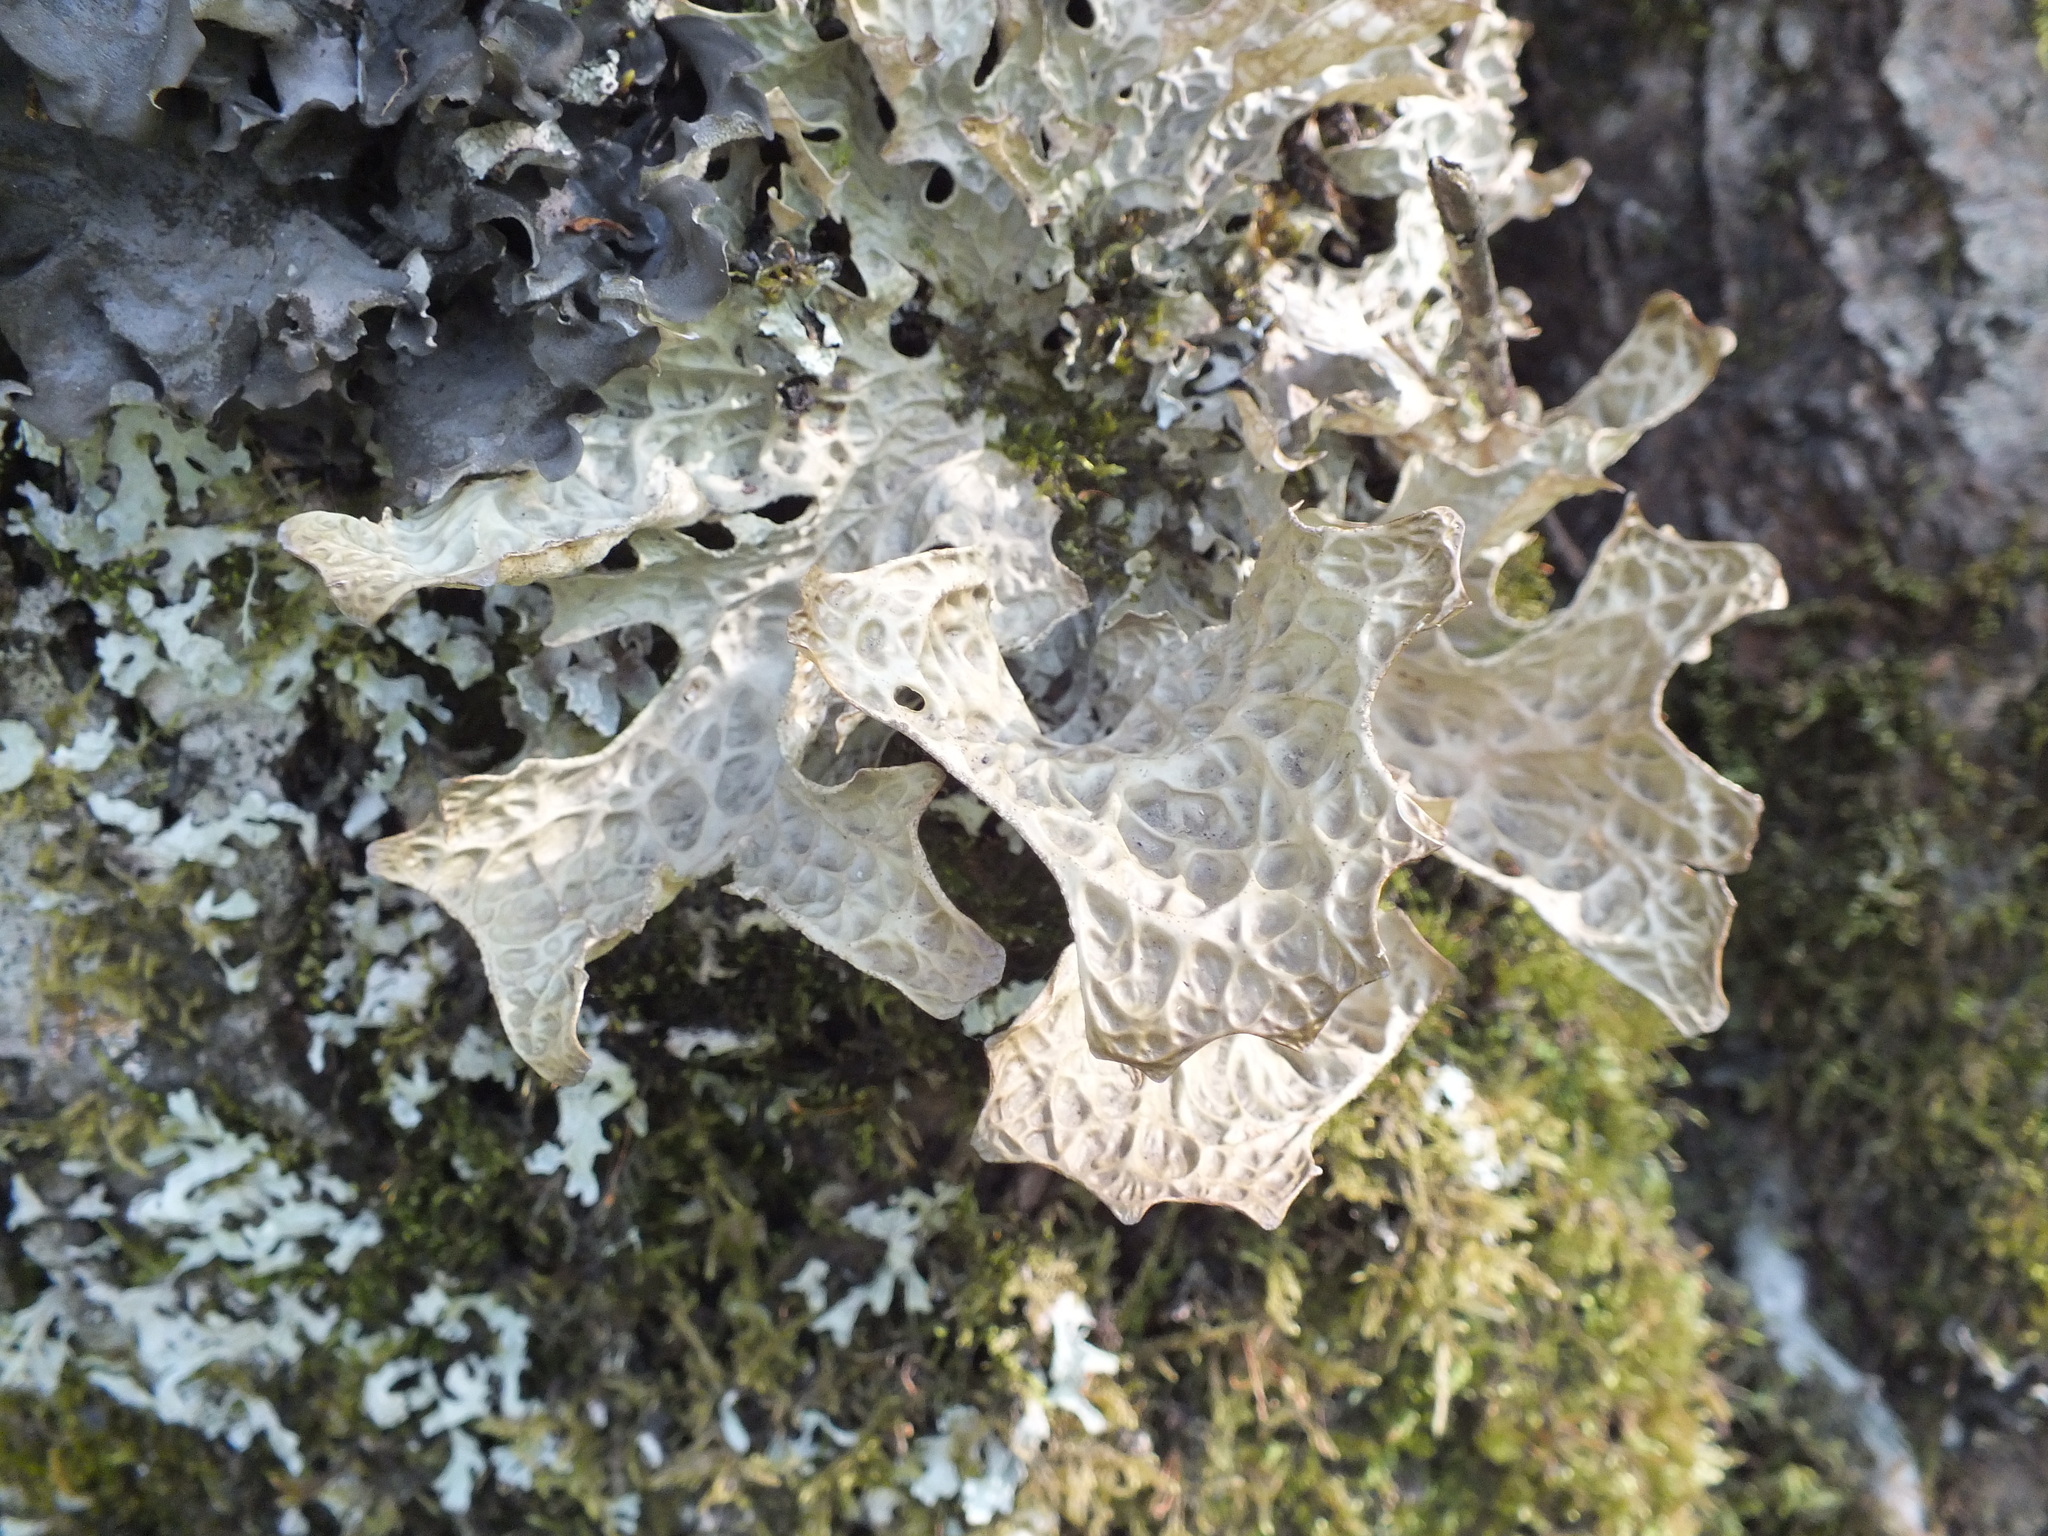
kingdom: Fungi
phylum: Ascomycota
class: Lecanoromycetes
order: Peltigerales
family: Lobariaceae
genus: Lobaria
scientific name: Lobaria pulmonaria
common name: Lungwort
